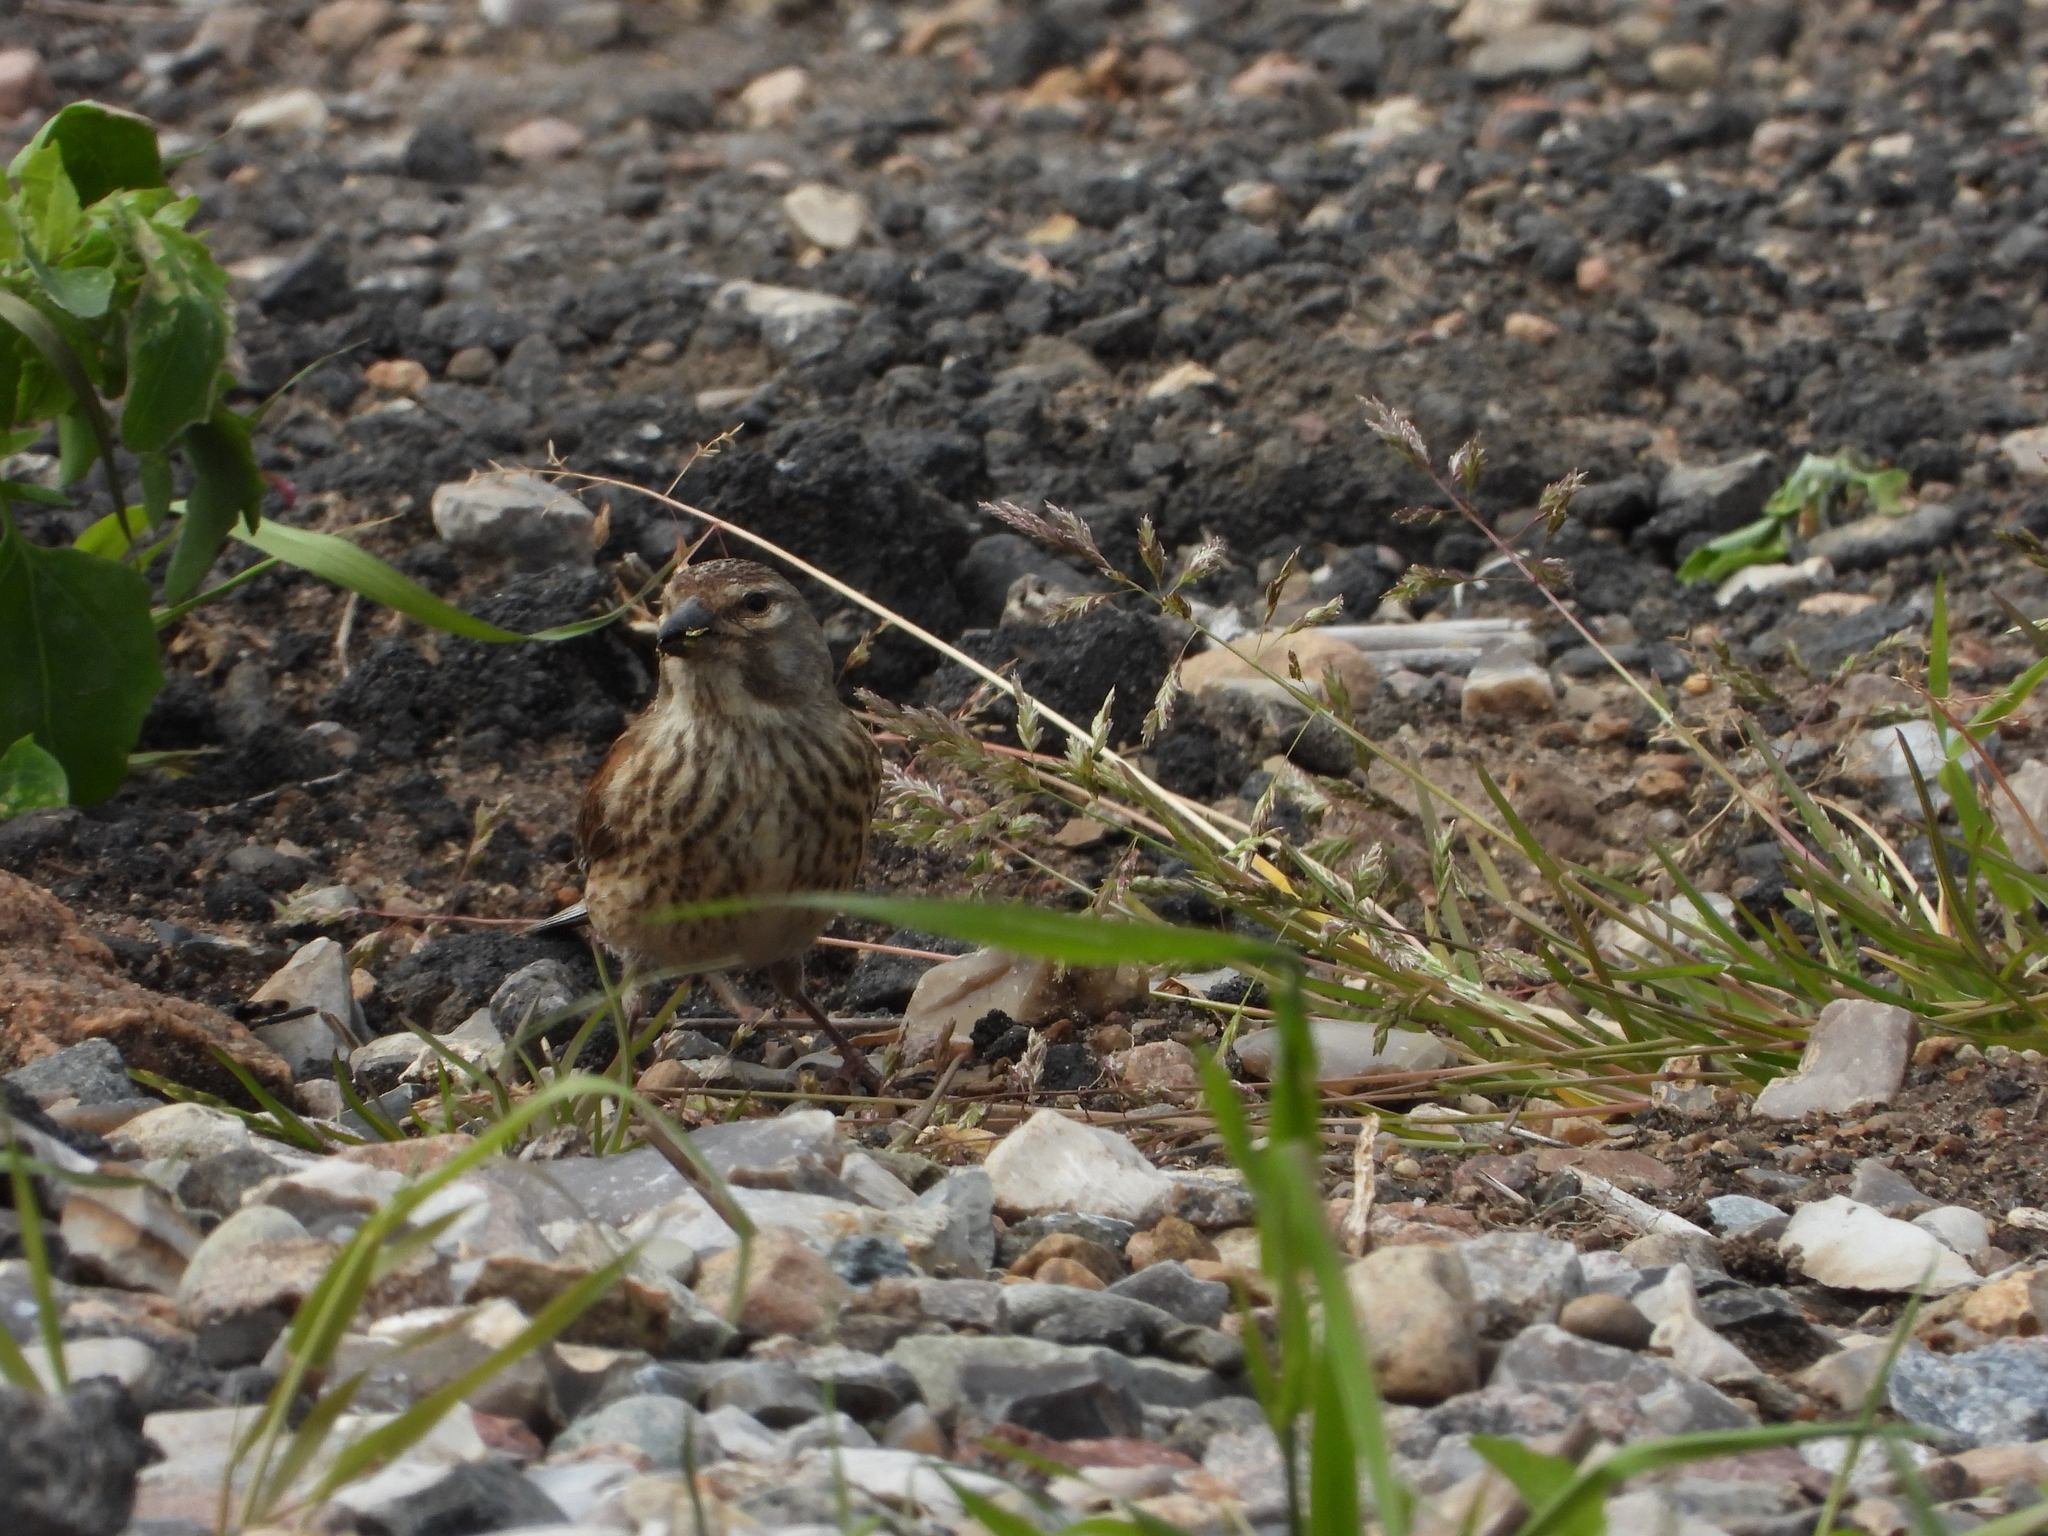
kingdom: Animalia
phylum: Chordata
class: Aves
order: Passeriformes
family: Fringillidae
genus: Linaria
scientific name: Linaria cannabina
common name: Common linnet
